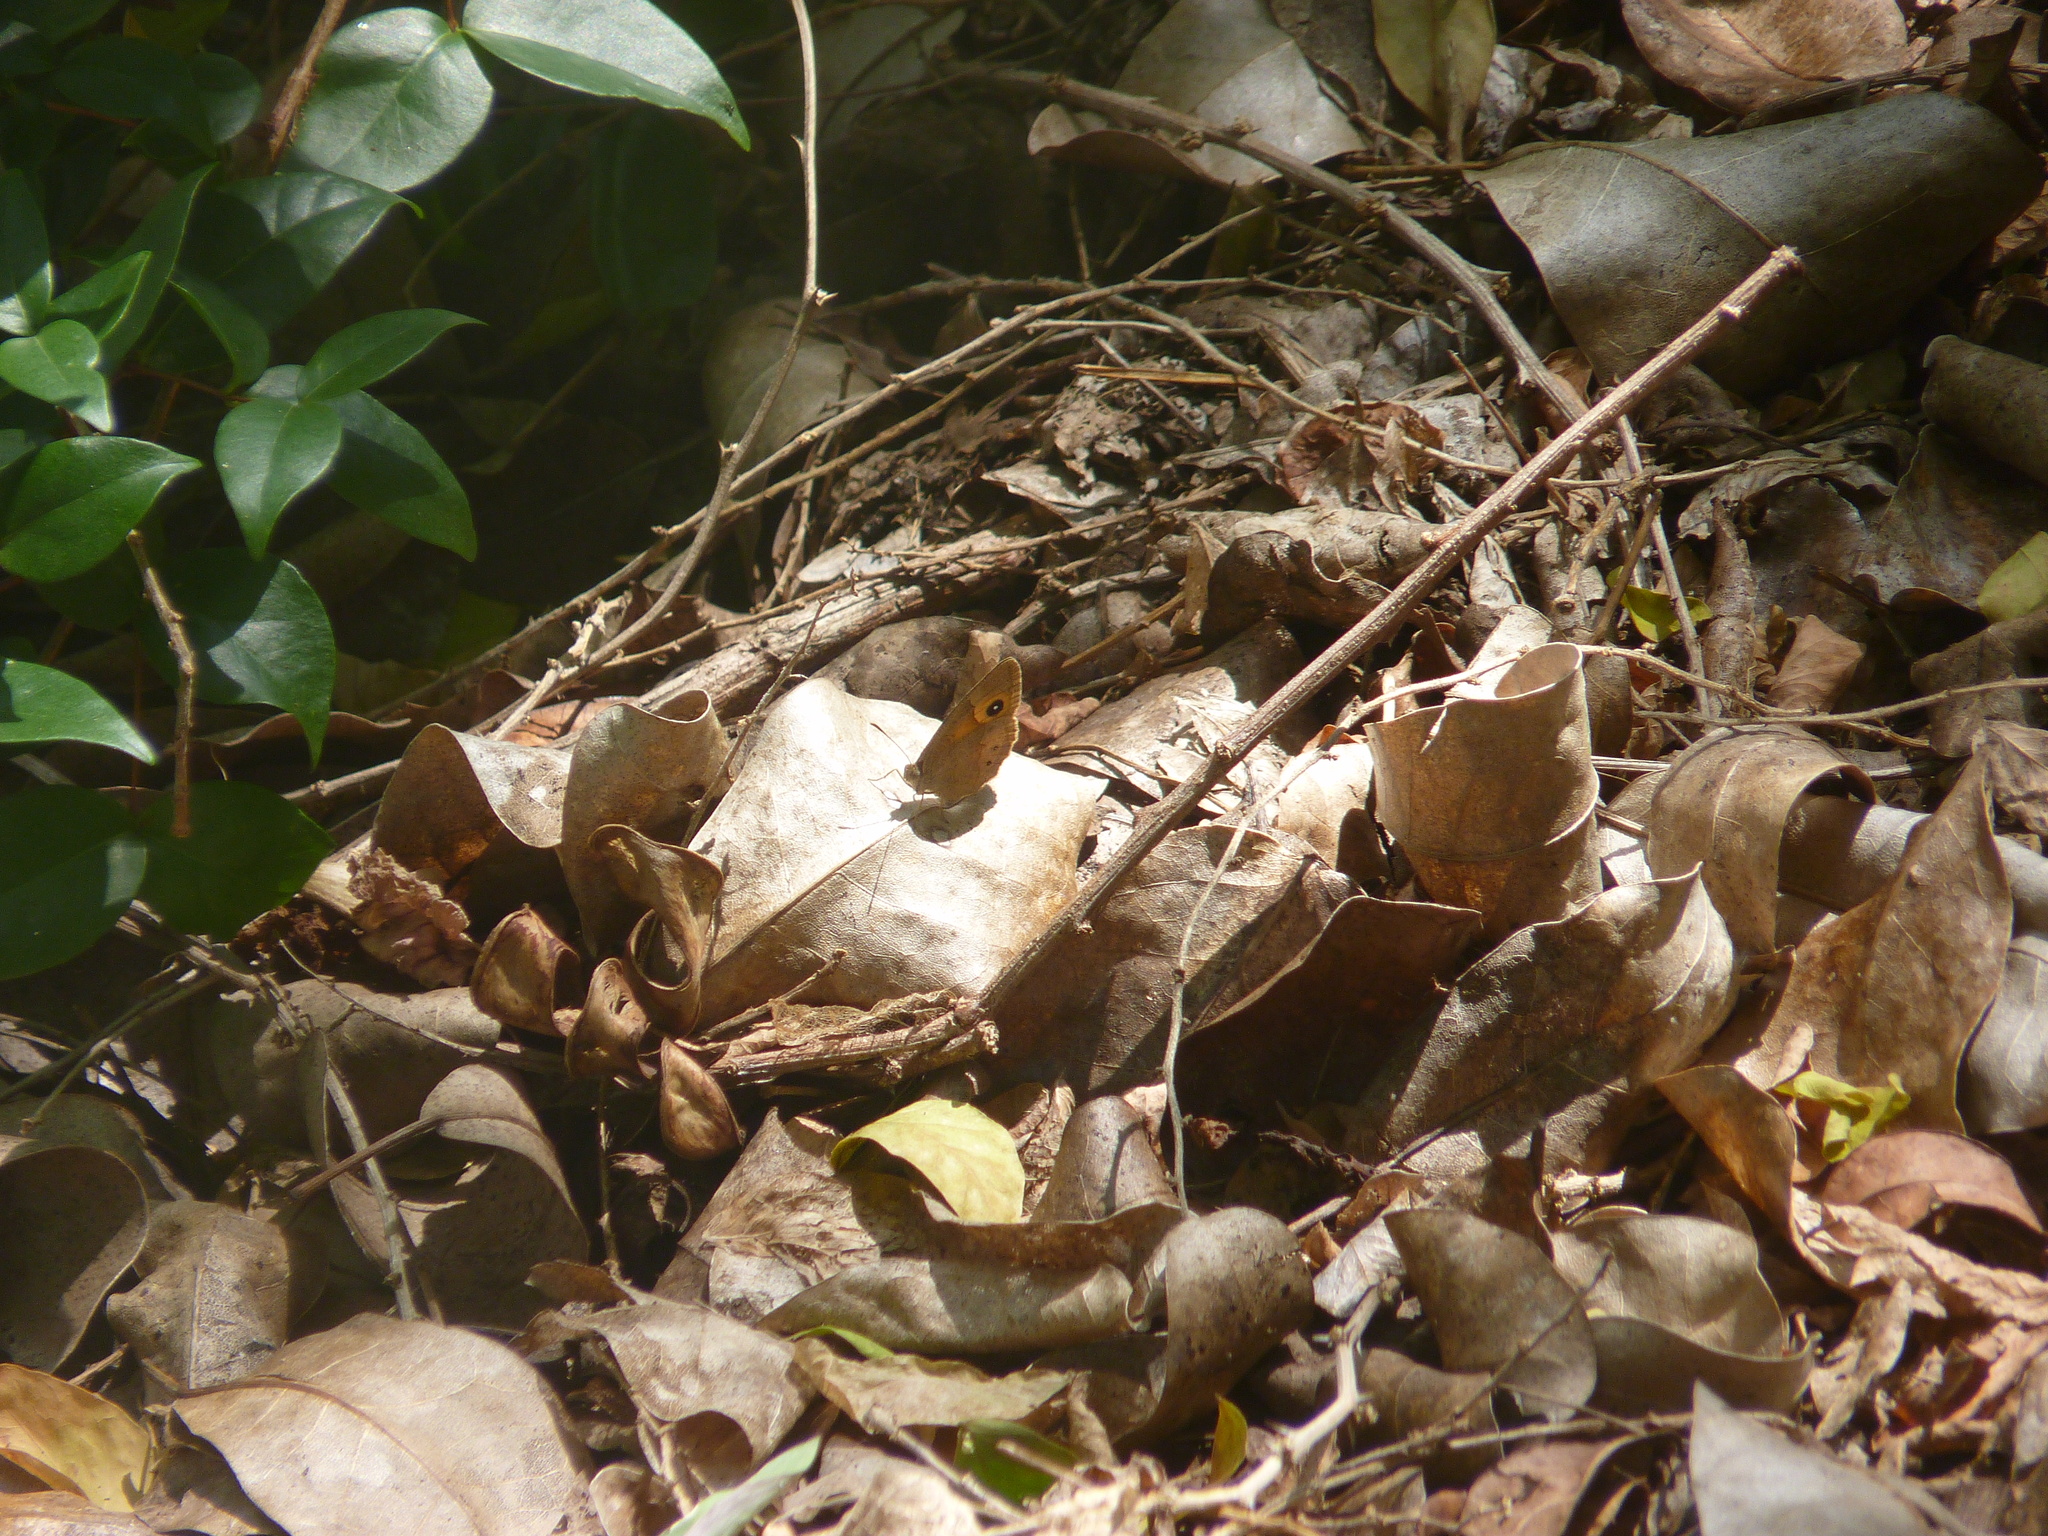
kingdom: Animalia
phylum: Arthropoda
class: Insecta
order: Lepidoptera
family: Nymphalidae
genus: Henotesia
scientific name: Henotesia narcissus
